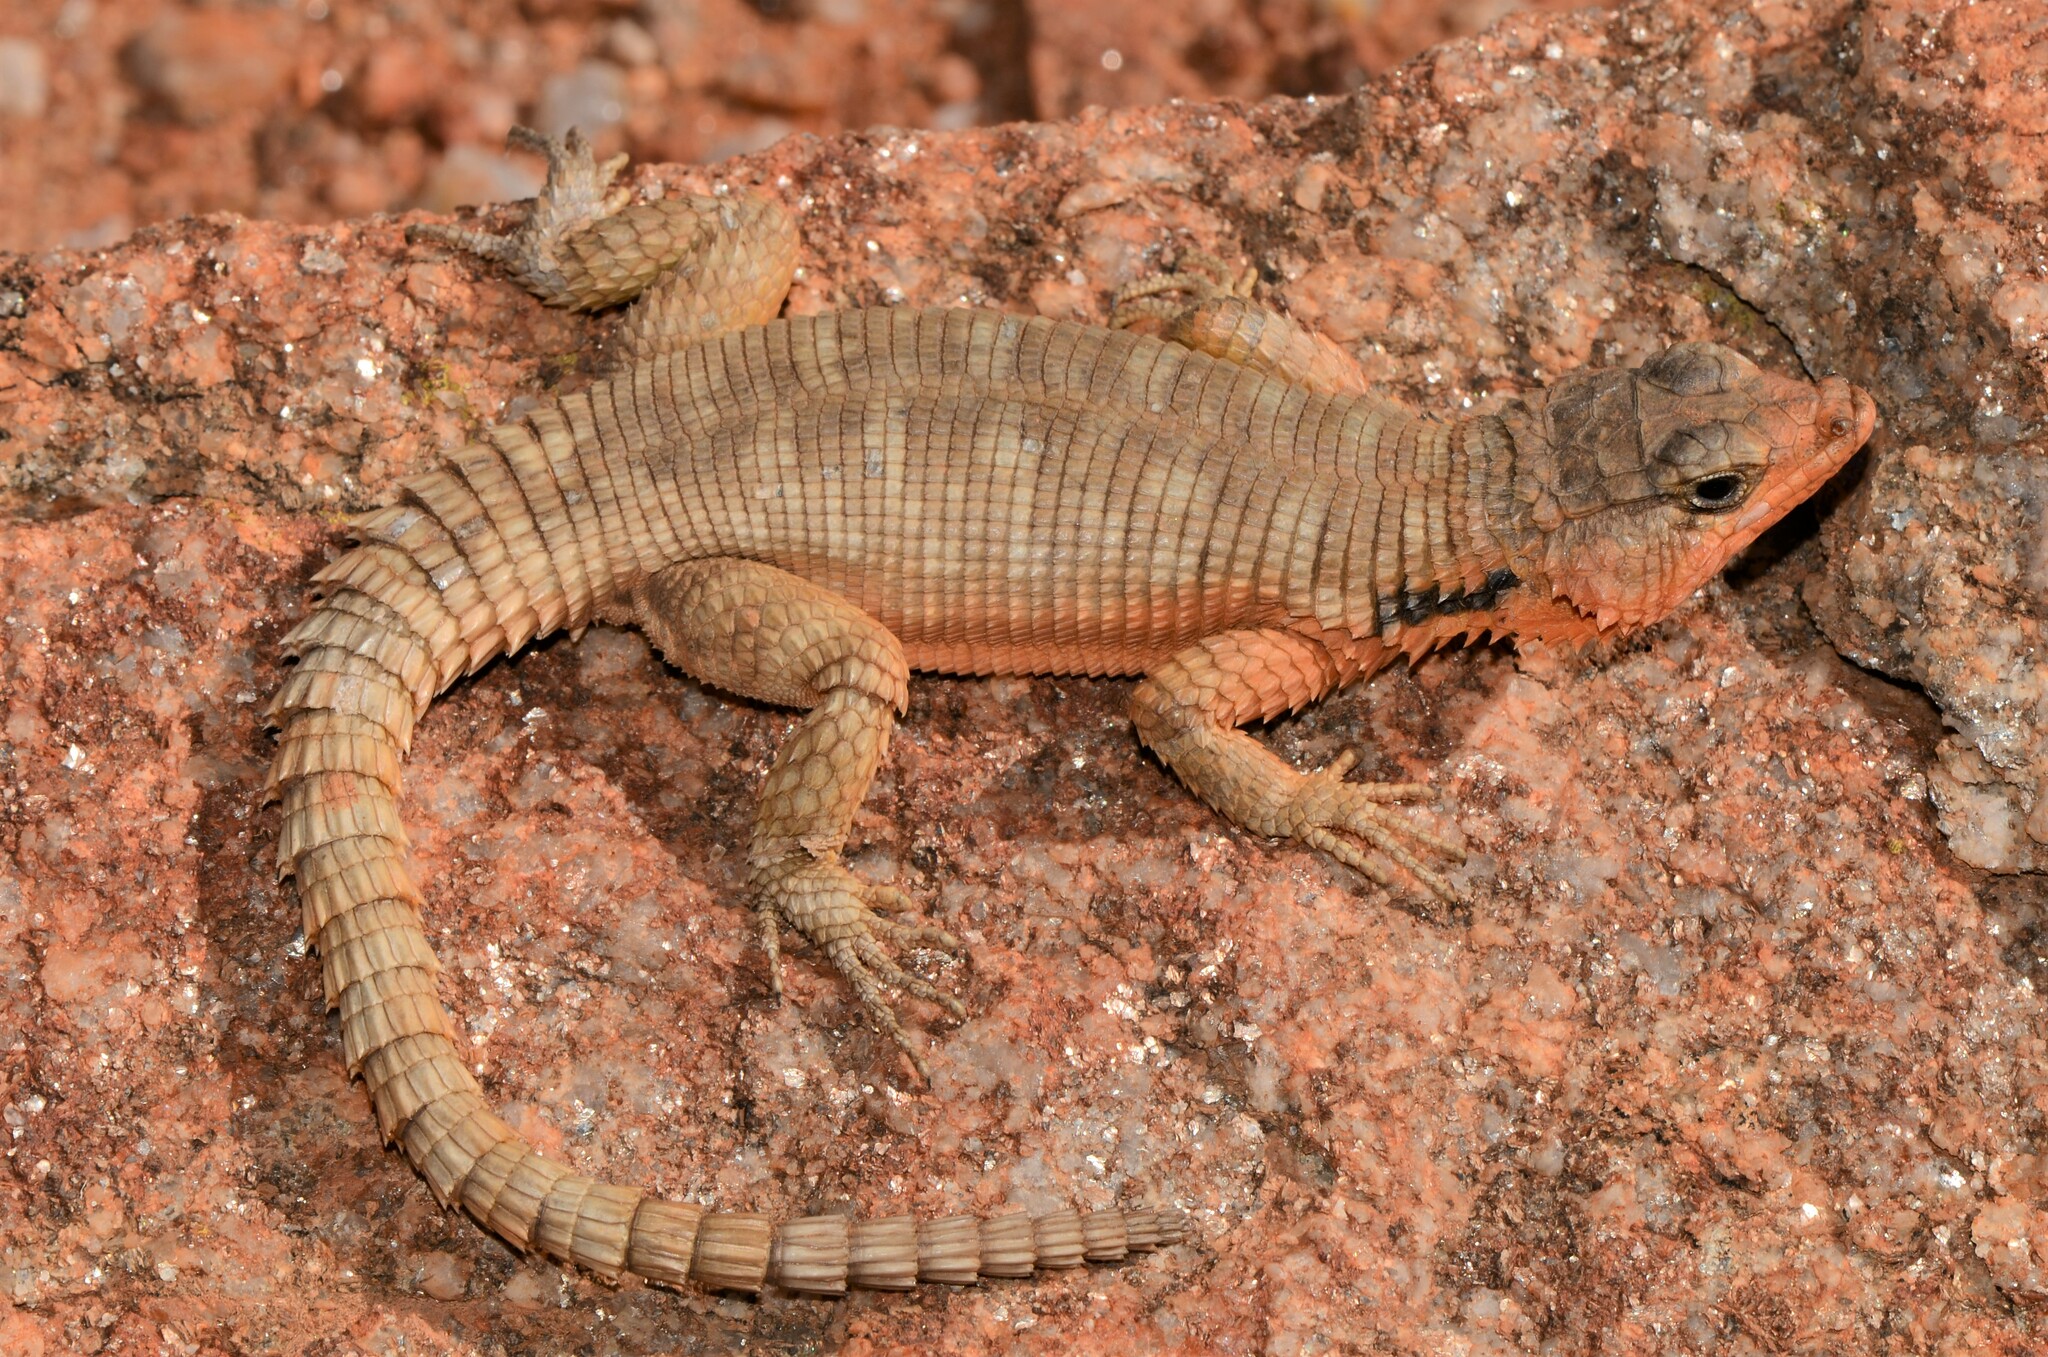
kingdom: Animalia
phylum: Chordata
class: Squamata
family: Cordylidae
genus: Karusasaurus
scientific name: Karusasaurus polyzonus
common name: Karoo girdled lizard
